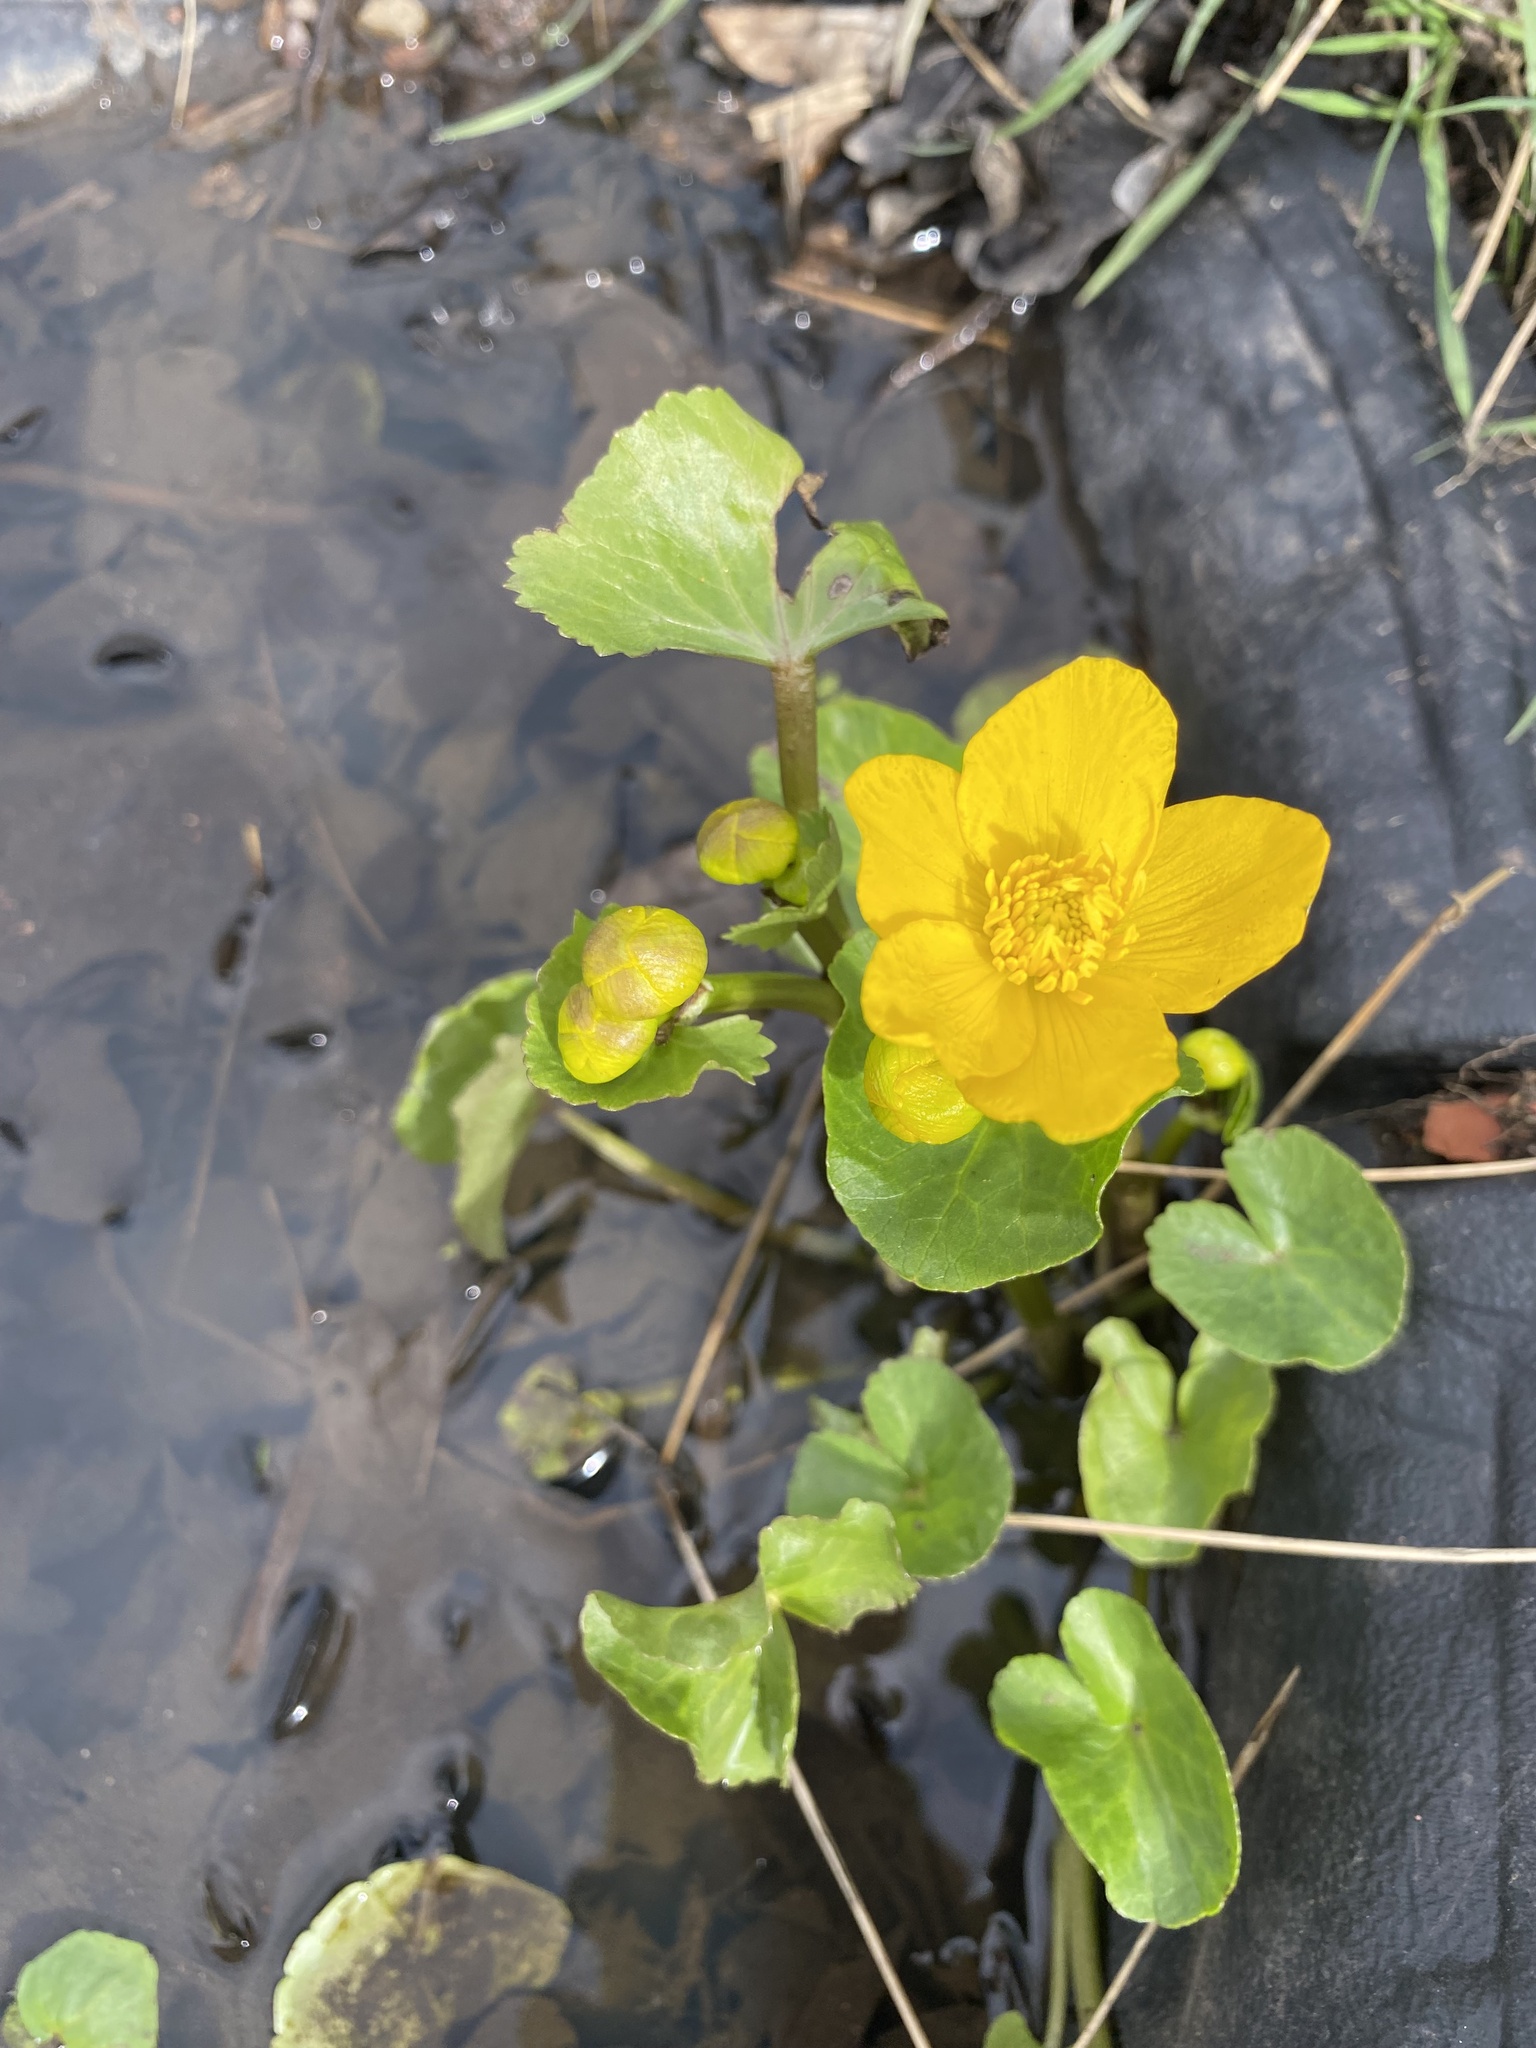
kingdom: Plantae
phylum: Tracheophyta
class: Magnoliopsida
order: Ranunculales
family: Ranunculaceae
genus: Caltha
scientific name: Caltha palustris
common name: Marsh marigold
